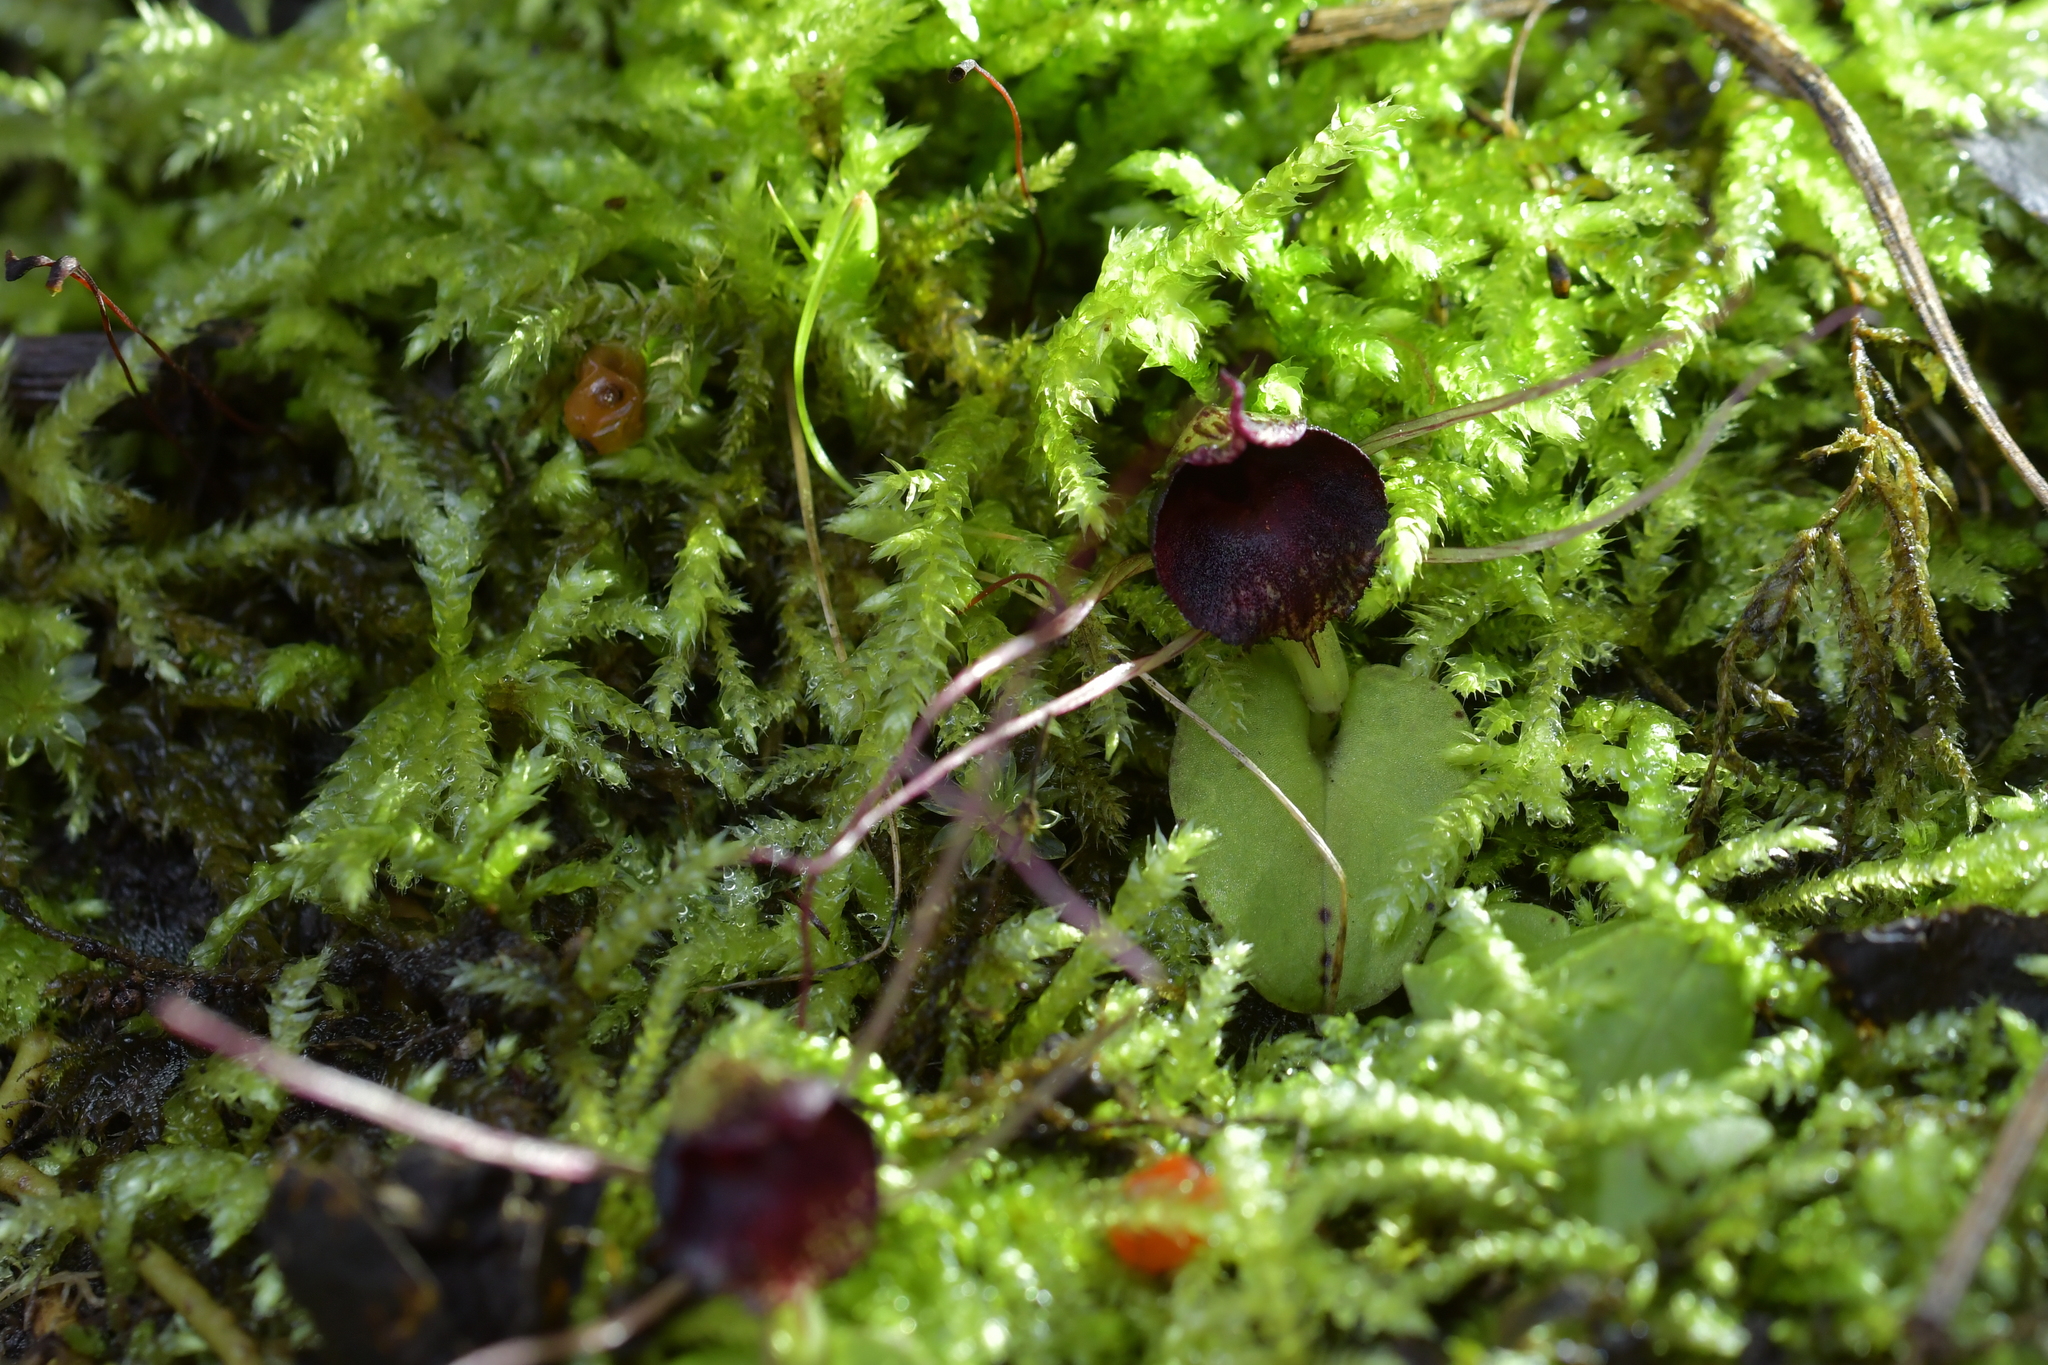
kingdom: Plantae
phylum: Tracheophyta
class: Liliopsida
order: Asparagales
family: Orchidaceae
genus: Corybas
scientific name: Corybas iridescens
